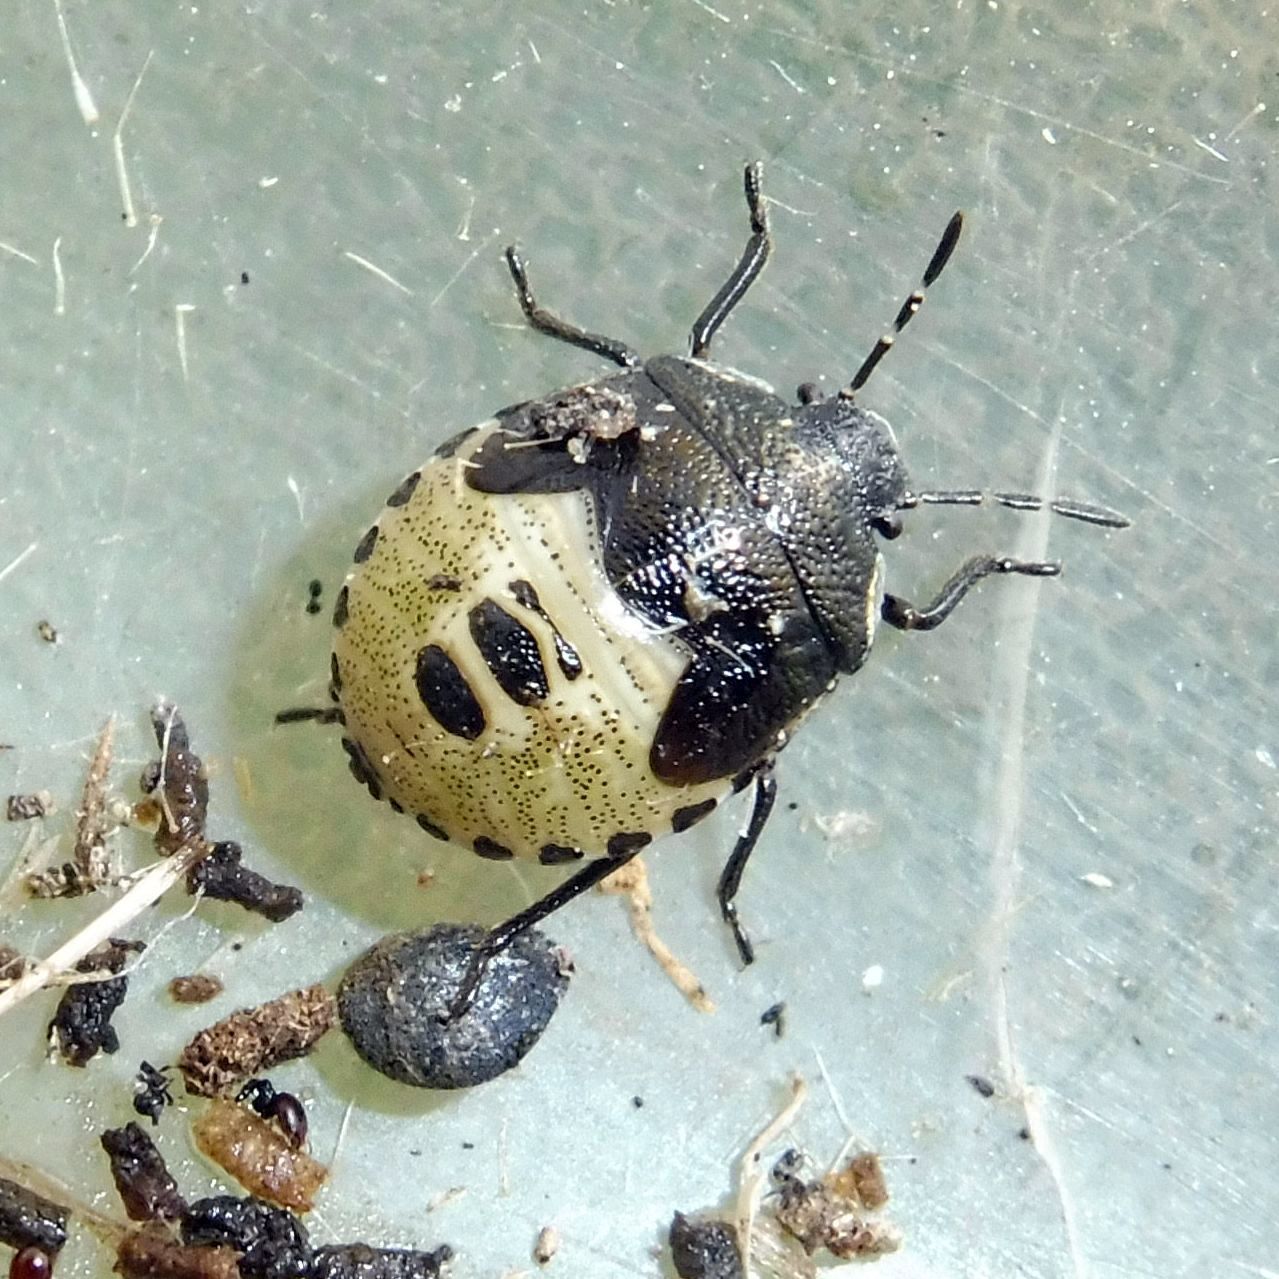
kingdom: Animalia
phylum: Arthropoda
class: Insecta
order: Hemiptera
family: Pentatomidae
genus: Eysarcoris
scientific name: Eysarcoris venustissimus
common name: Woundwort shieldbug
